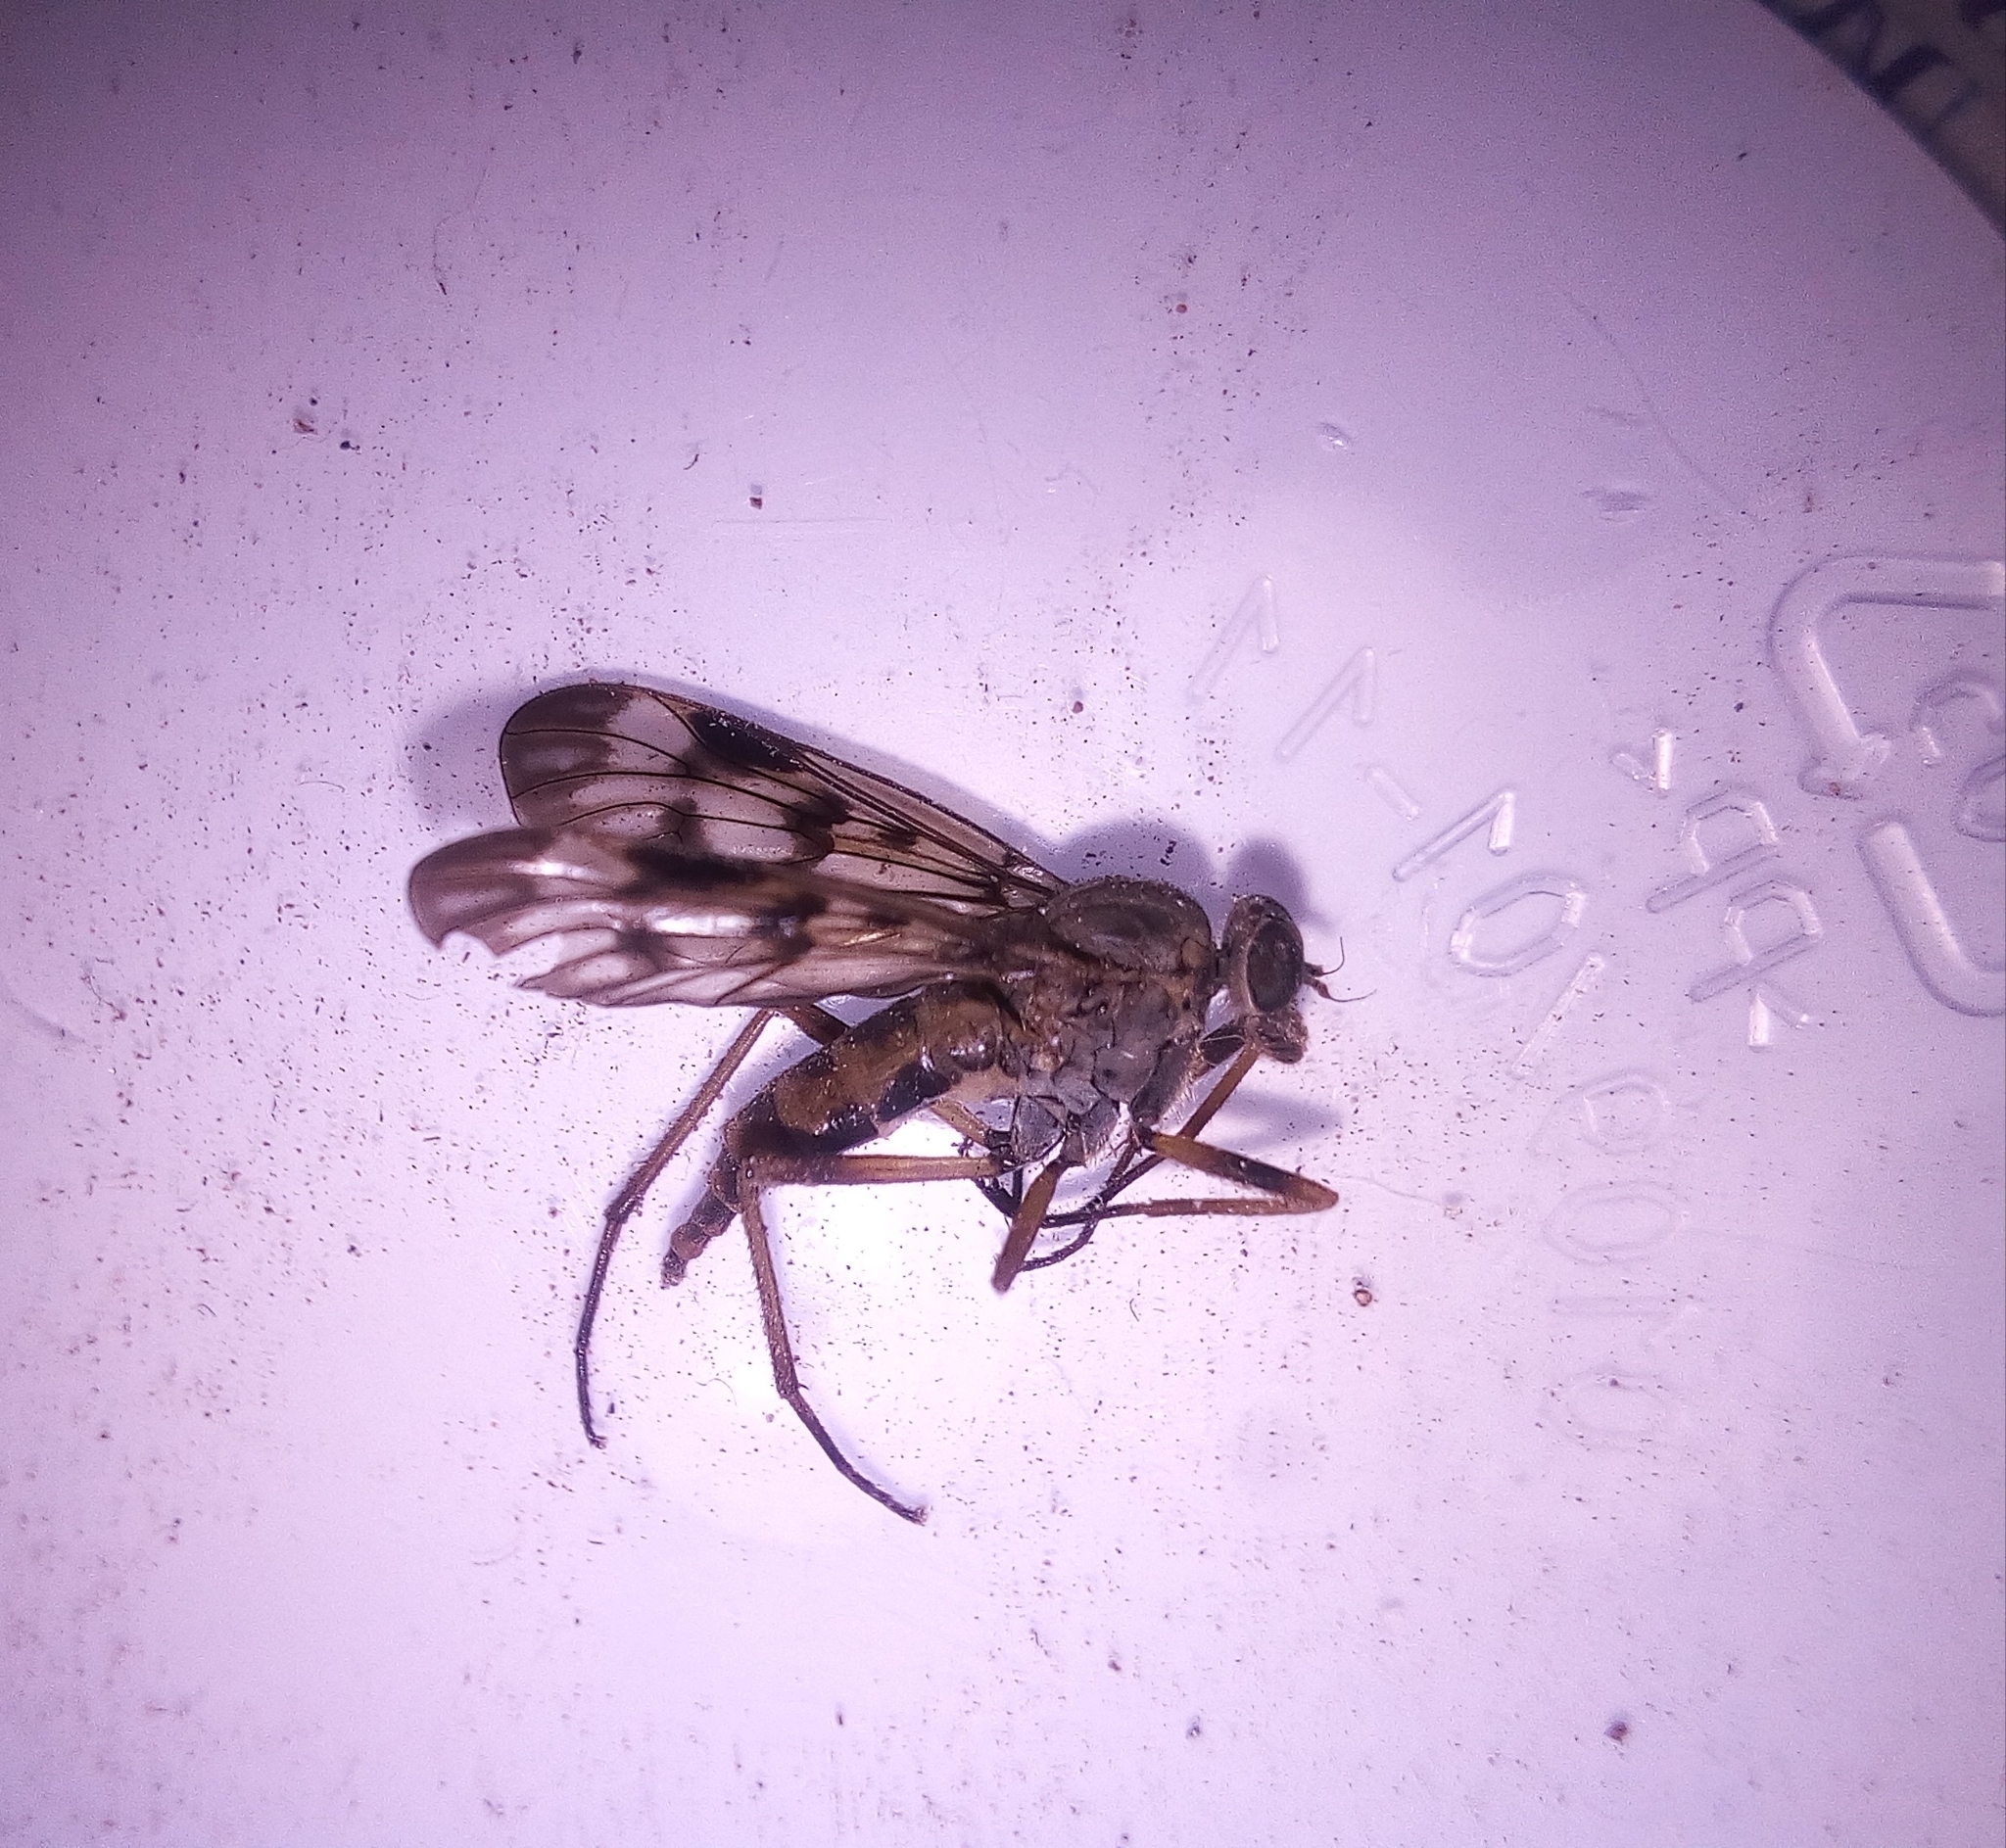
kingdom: Animalia
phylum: Arthropoda
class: Insecta
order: Diptera
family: Rhagionidae
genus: Rhagio
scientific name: Rhagio scolopacea
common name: Downlooker snipefly
